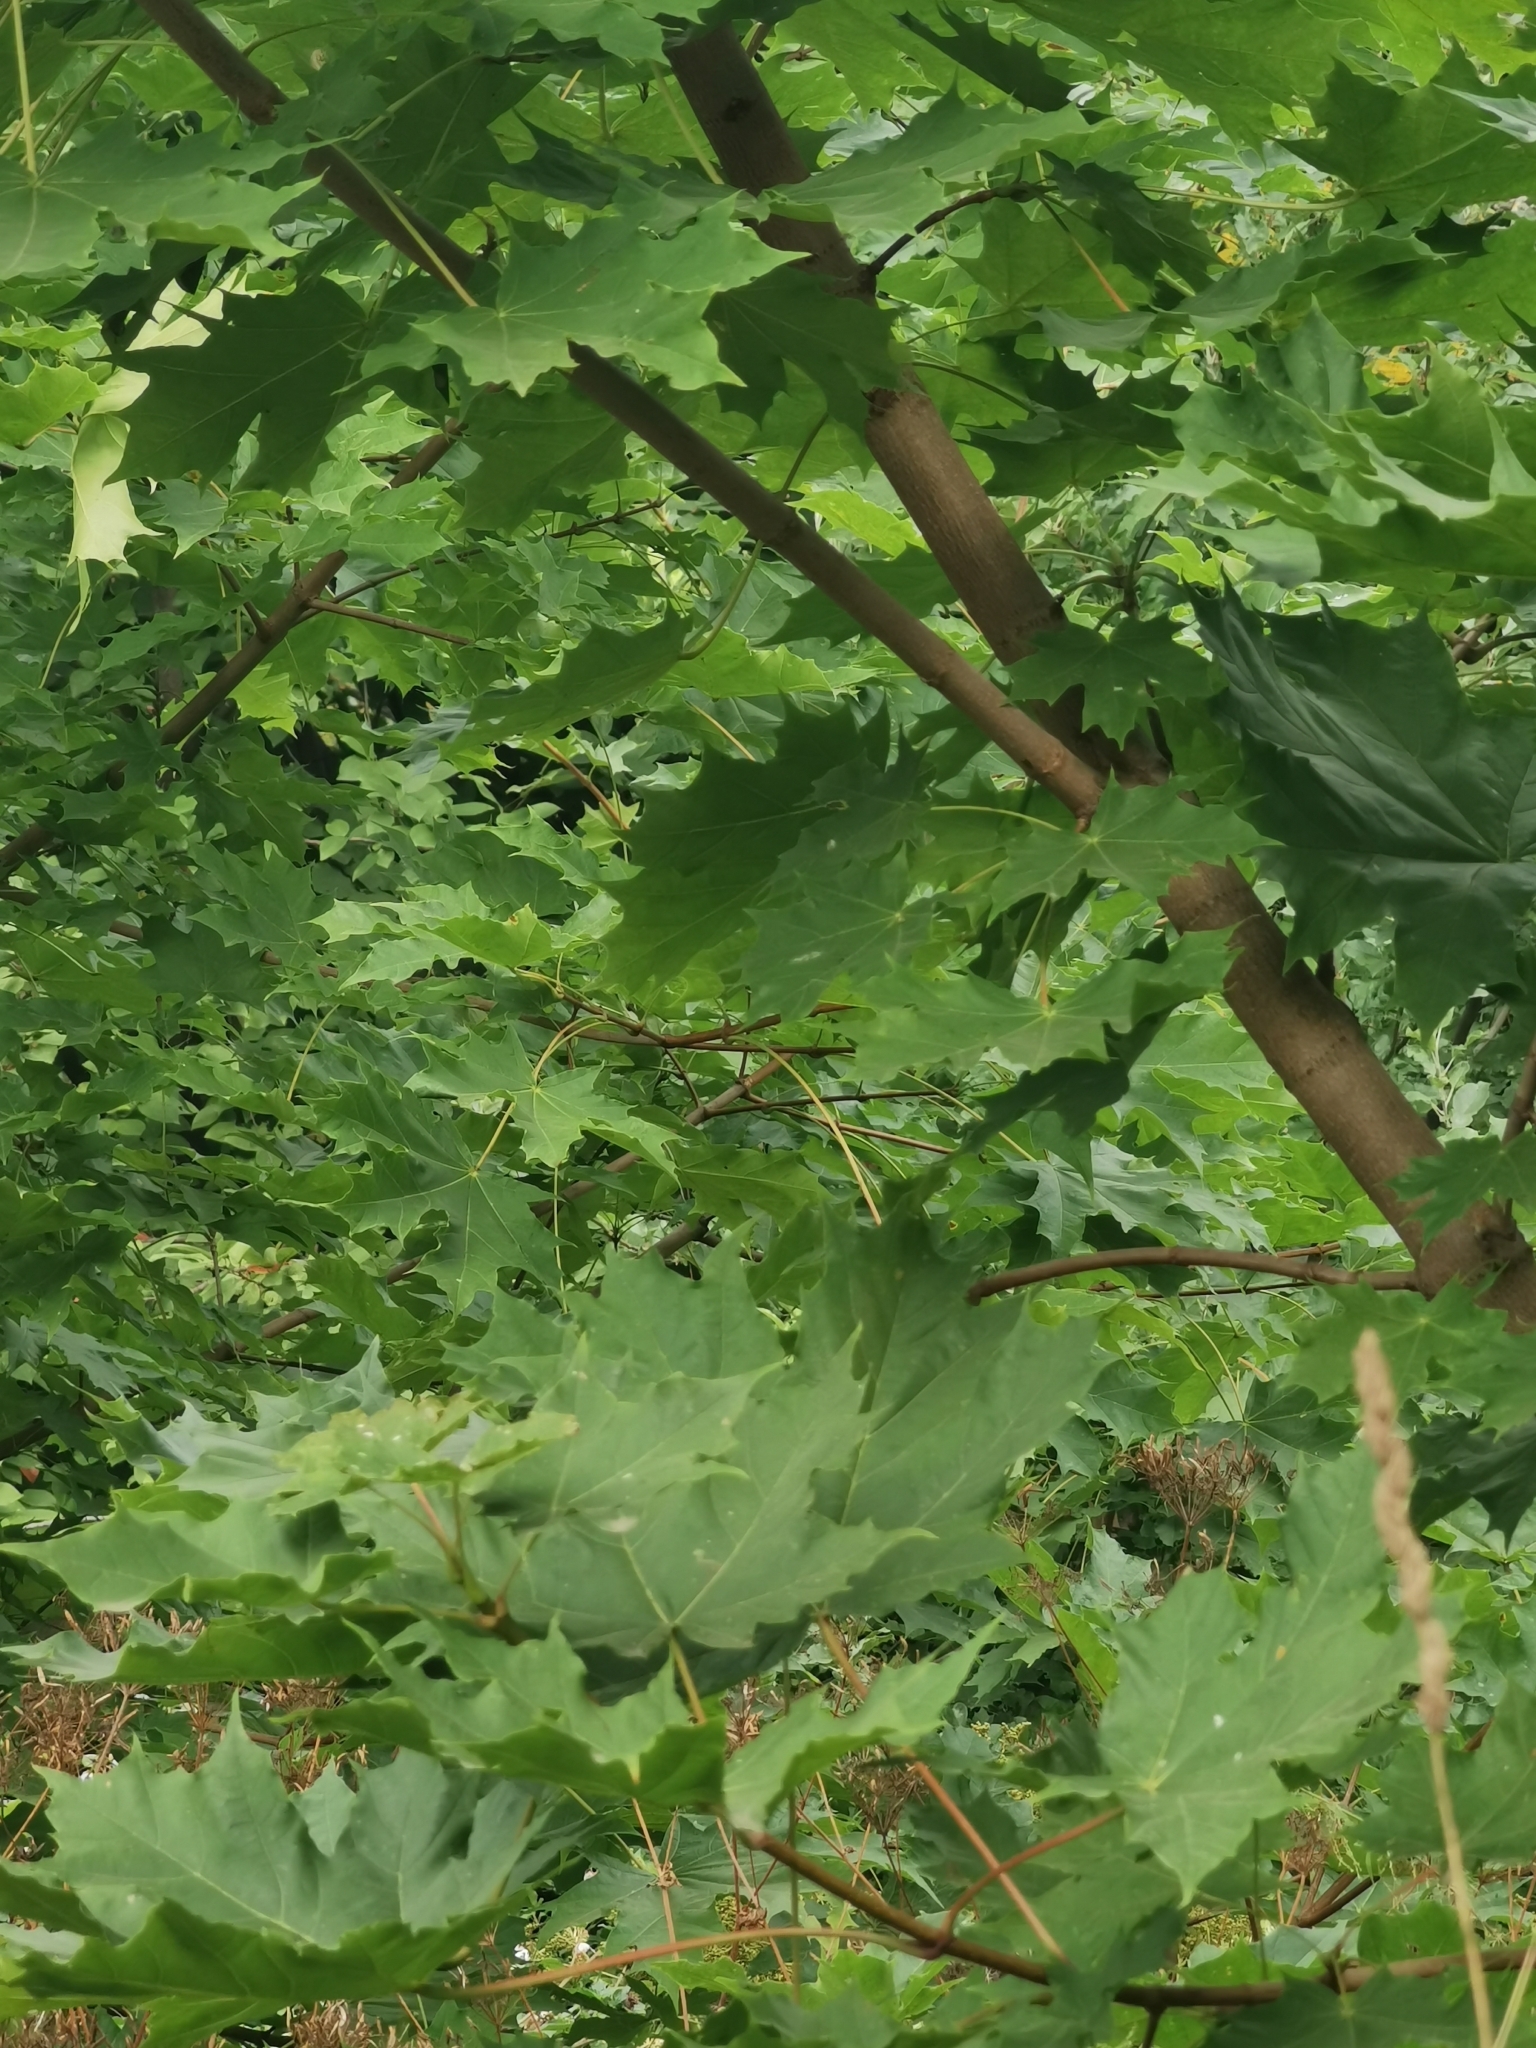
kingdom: Plantae
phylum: Tracheophyta
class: Magnoliopsida
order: Sapindales
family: Sapindaceae
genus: Acer
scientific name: Acer platanoides
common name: Norway maple
